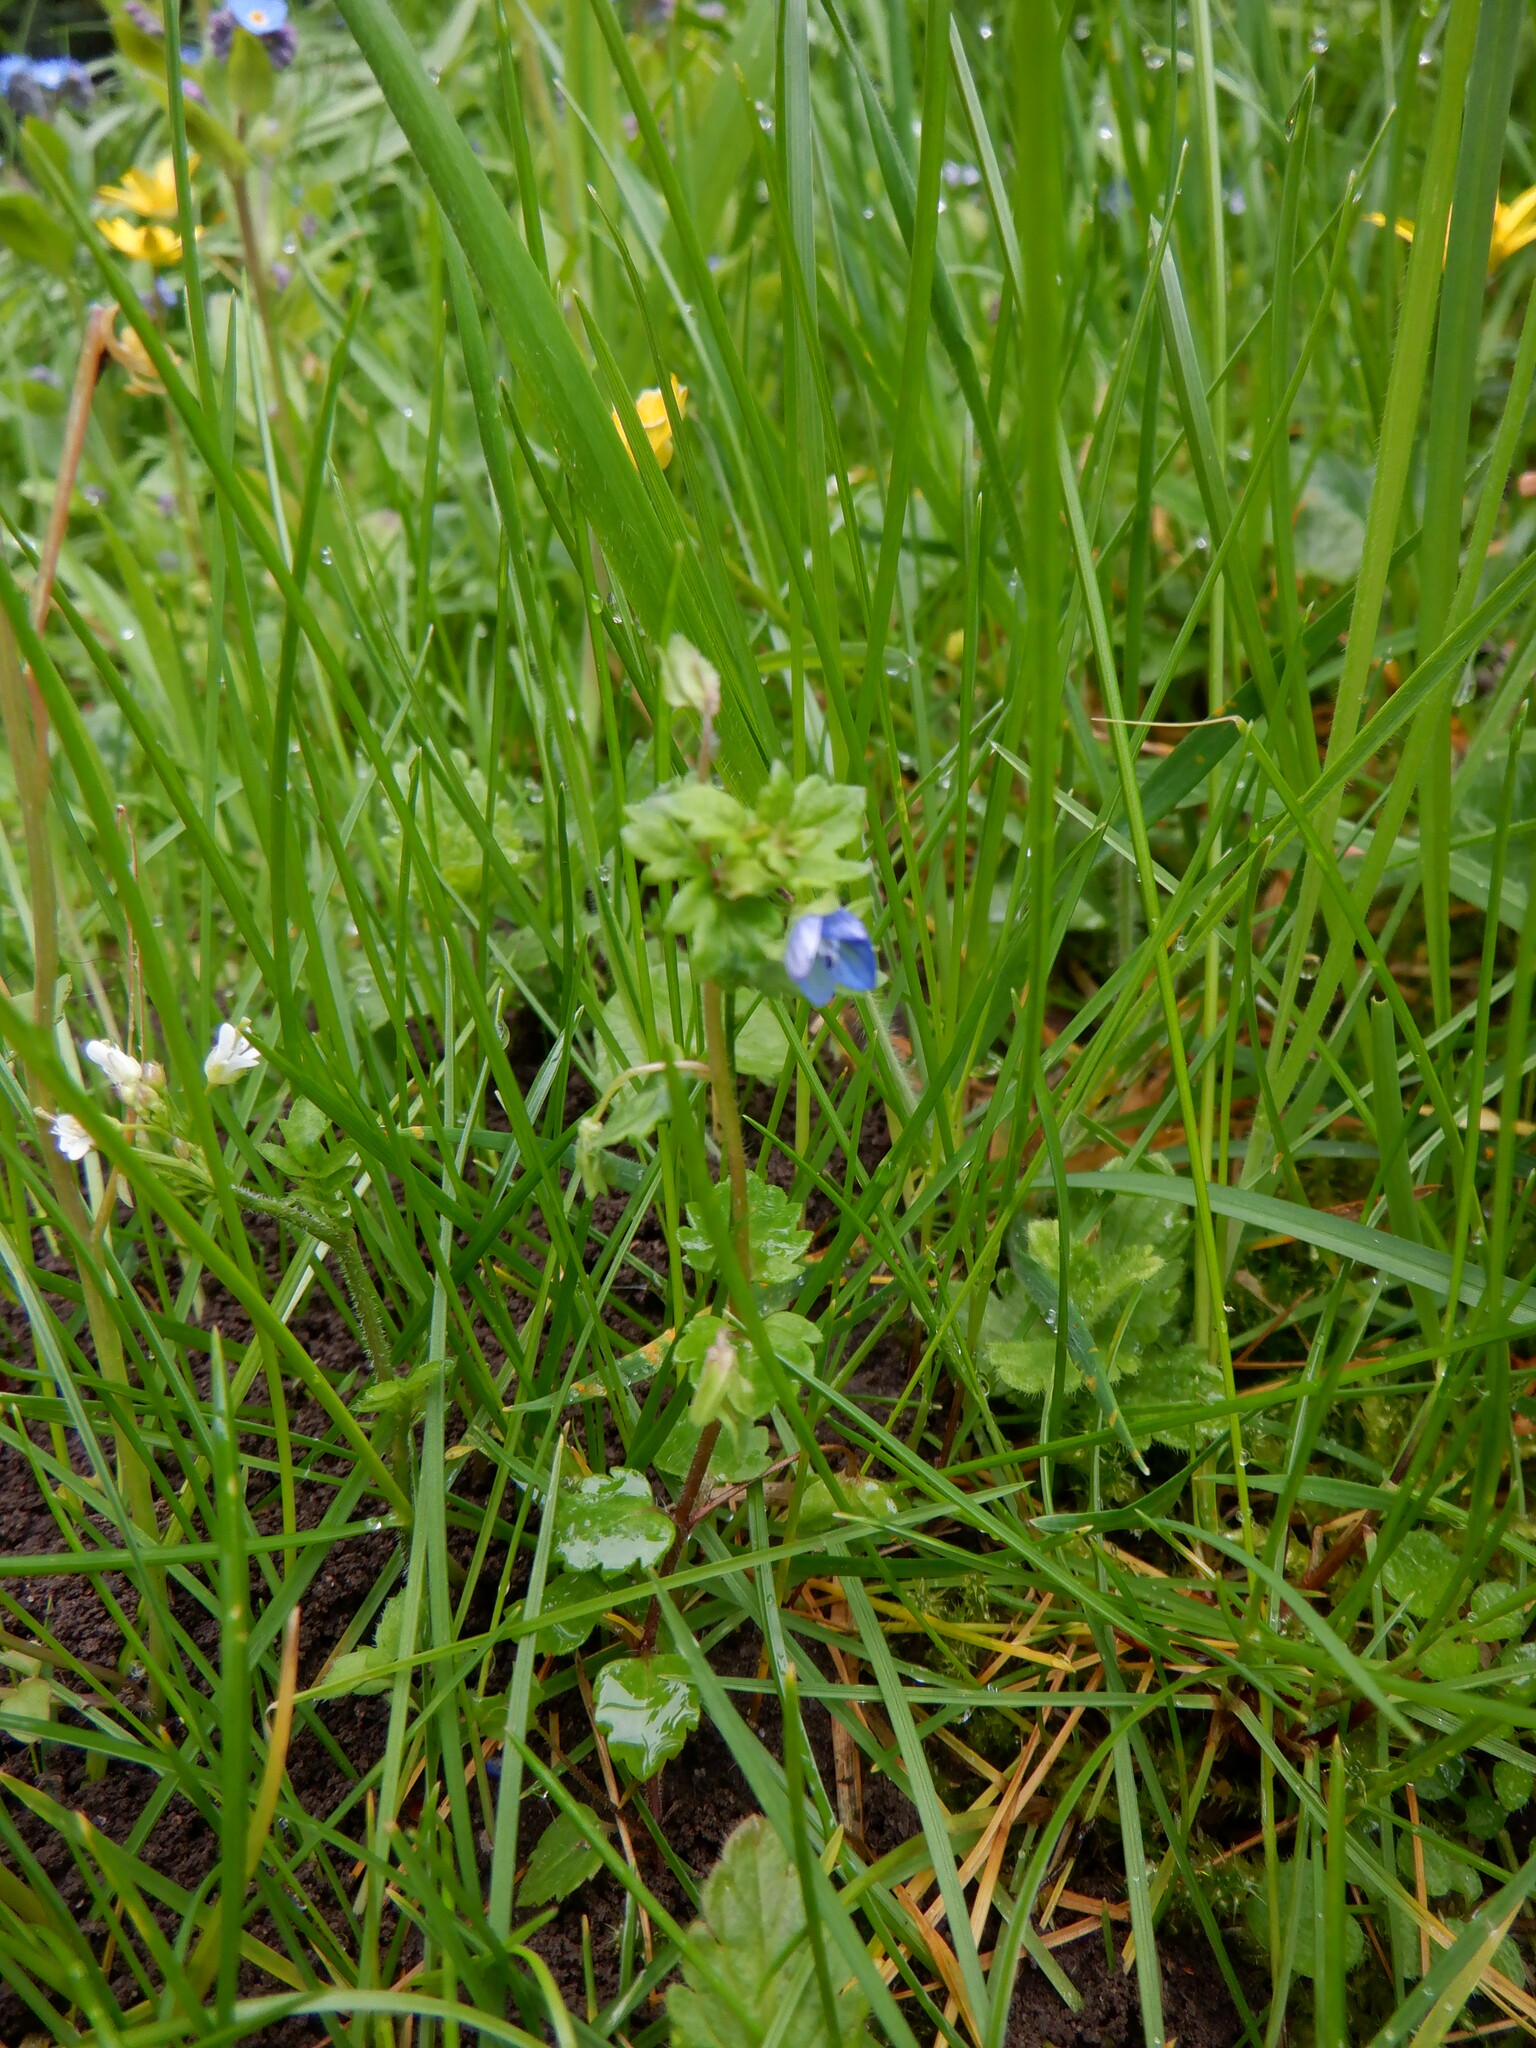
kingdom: Plantae
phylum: Tracheophyta
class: Magnoliopsida
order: Lamiales
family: Plantaginaceae
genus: Veronica
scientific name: Veronica persica
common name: Common field-speedwell
